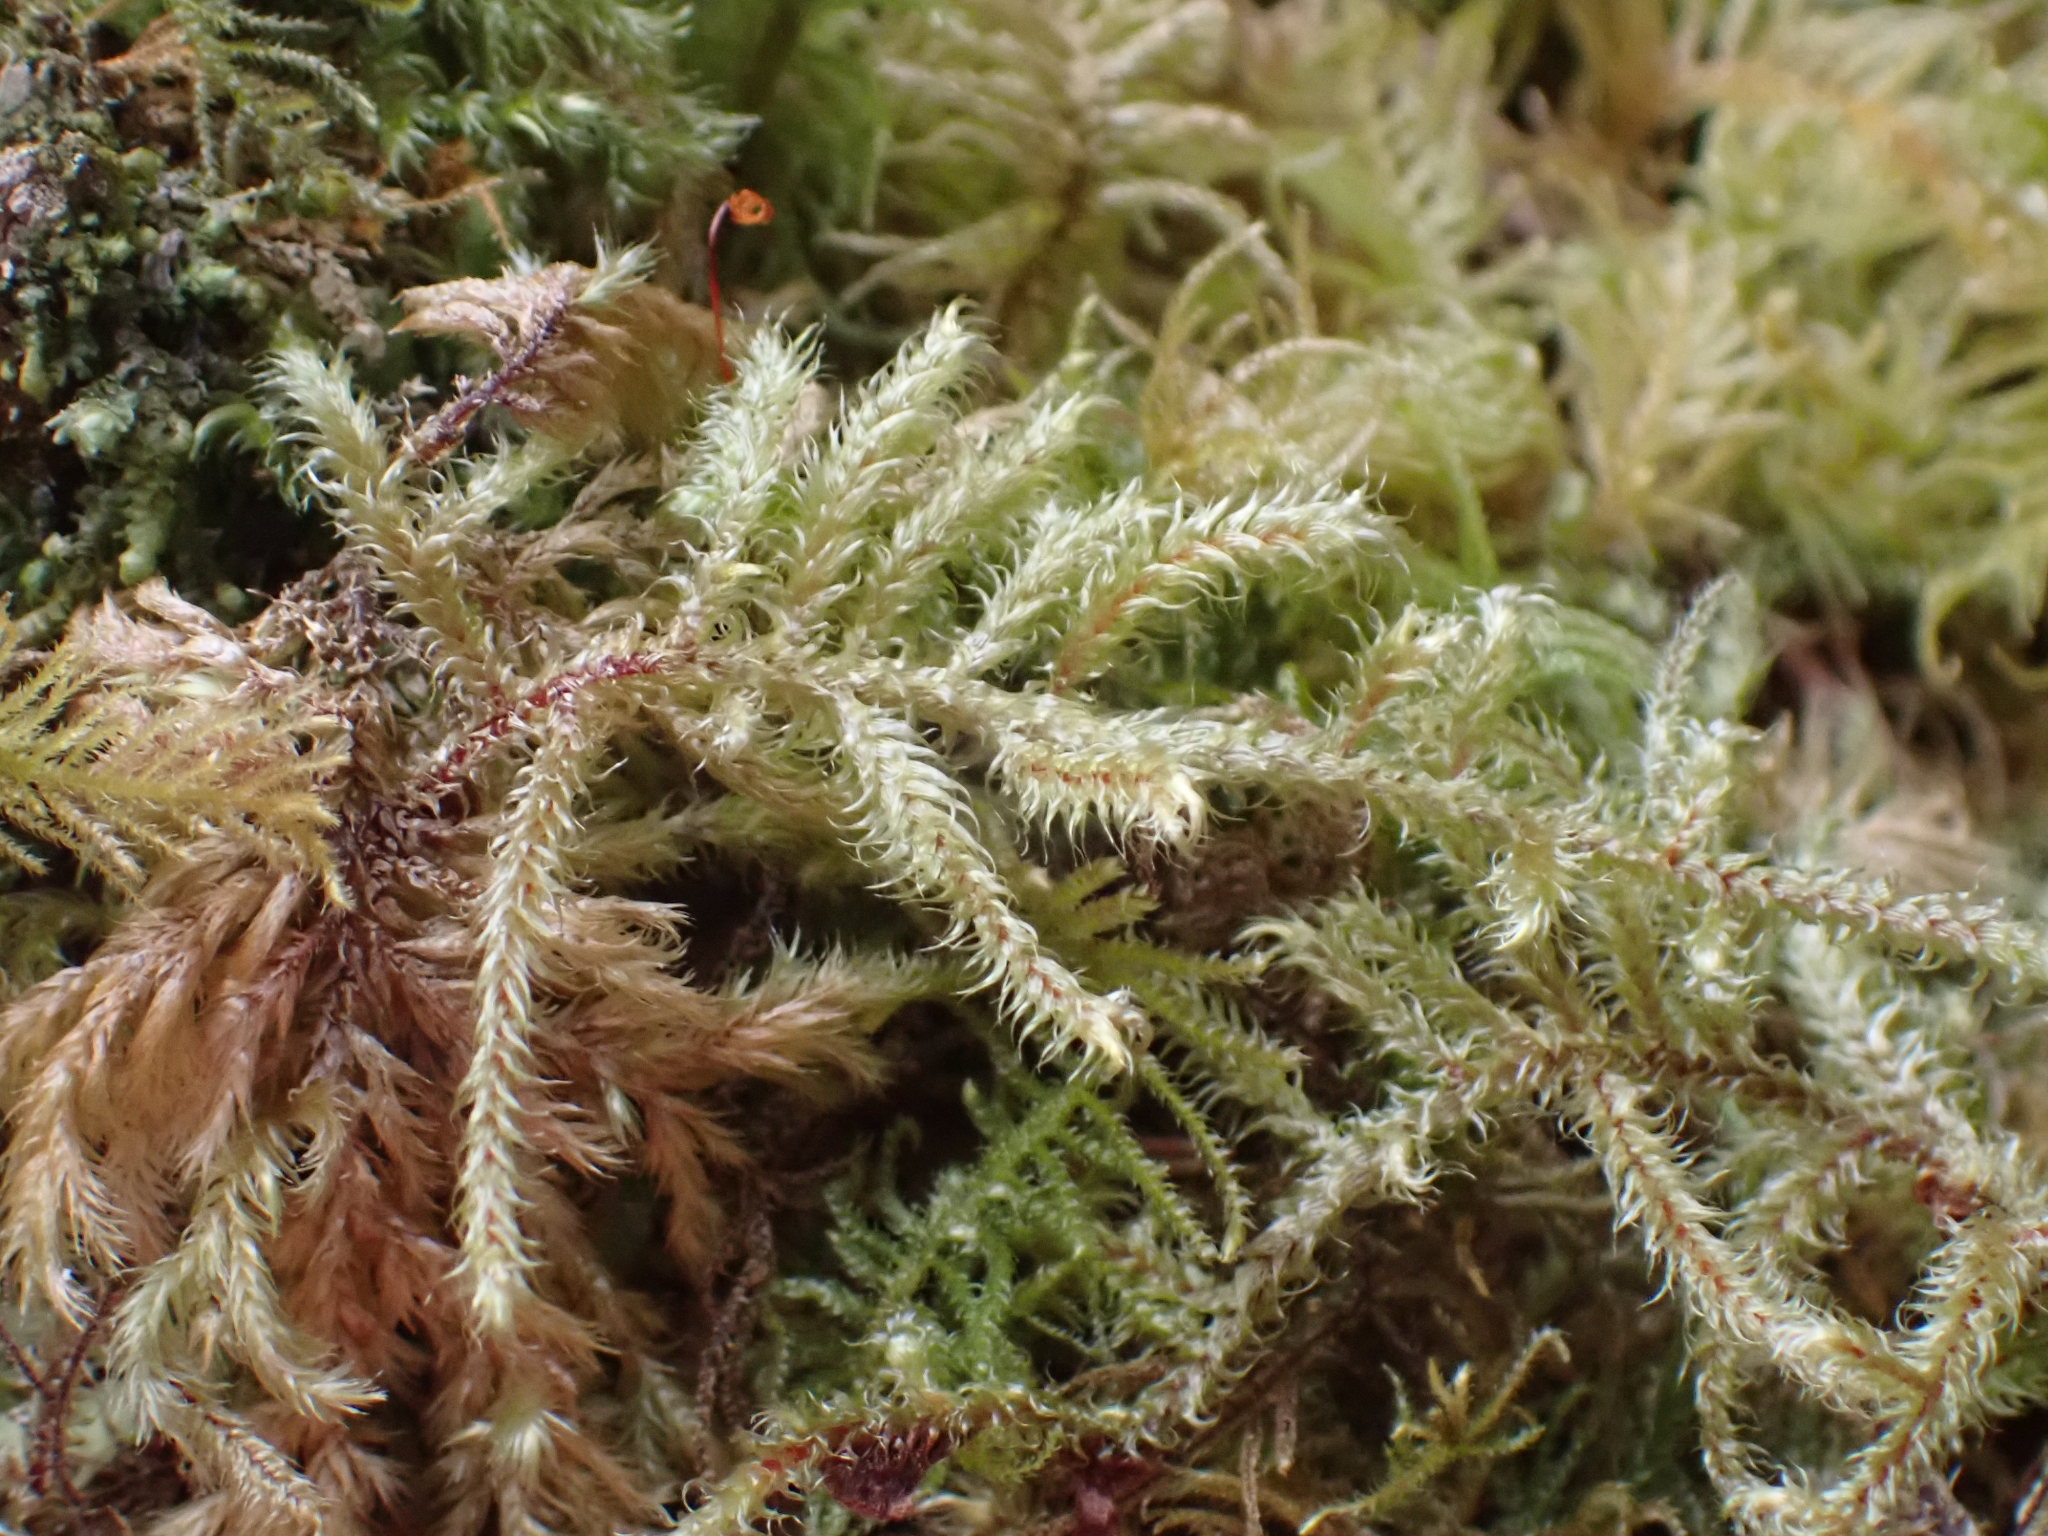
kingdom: Plantae
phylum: Bryophyta
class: Bryopsida
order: Hypnales
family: Hylocomiaceae
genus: Rhytidiadelphus
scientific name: Rhytidiadelphus loreus
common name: Lanky moss
